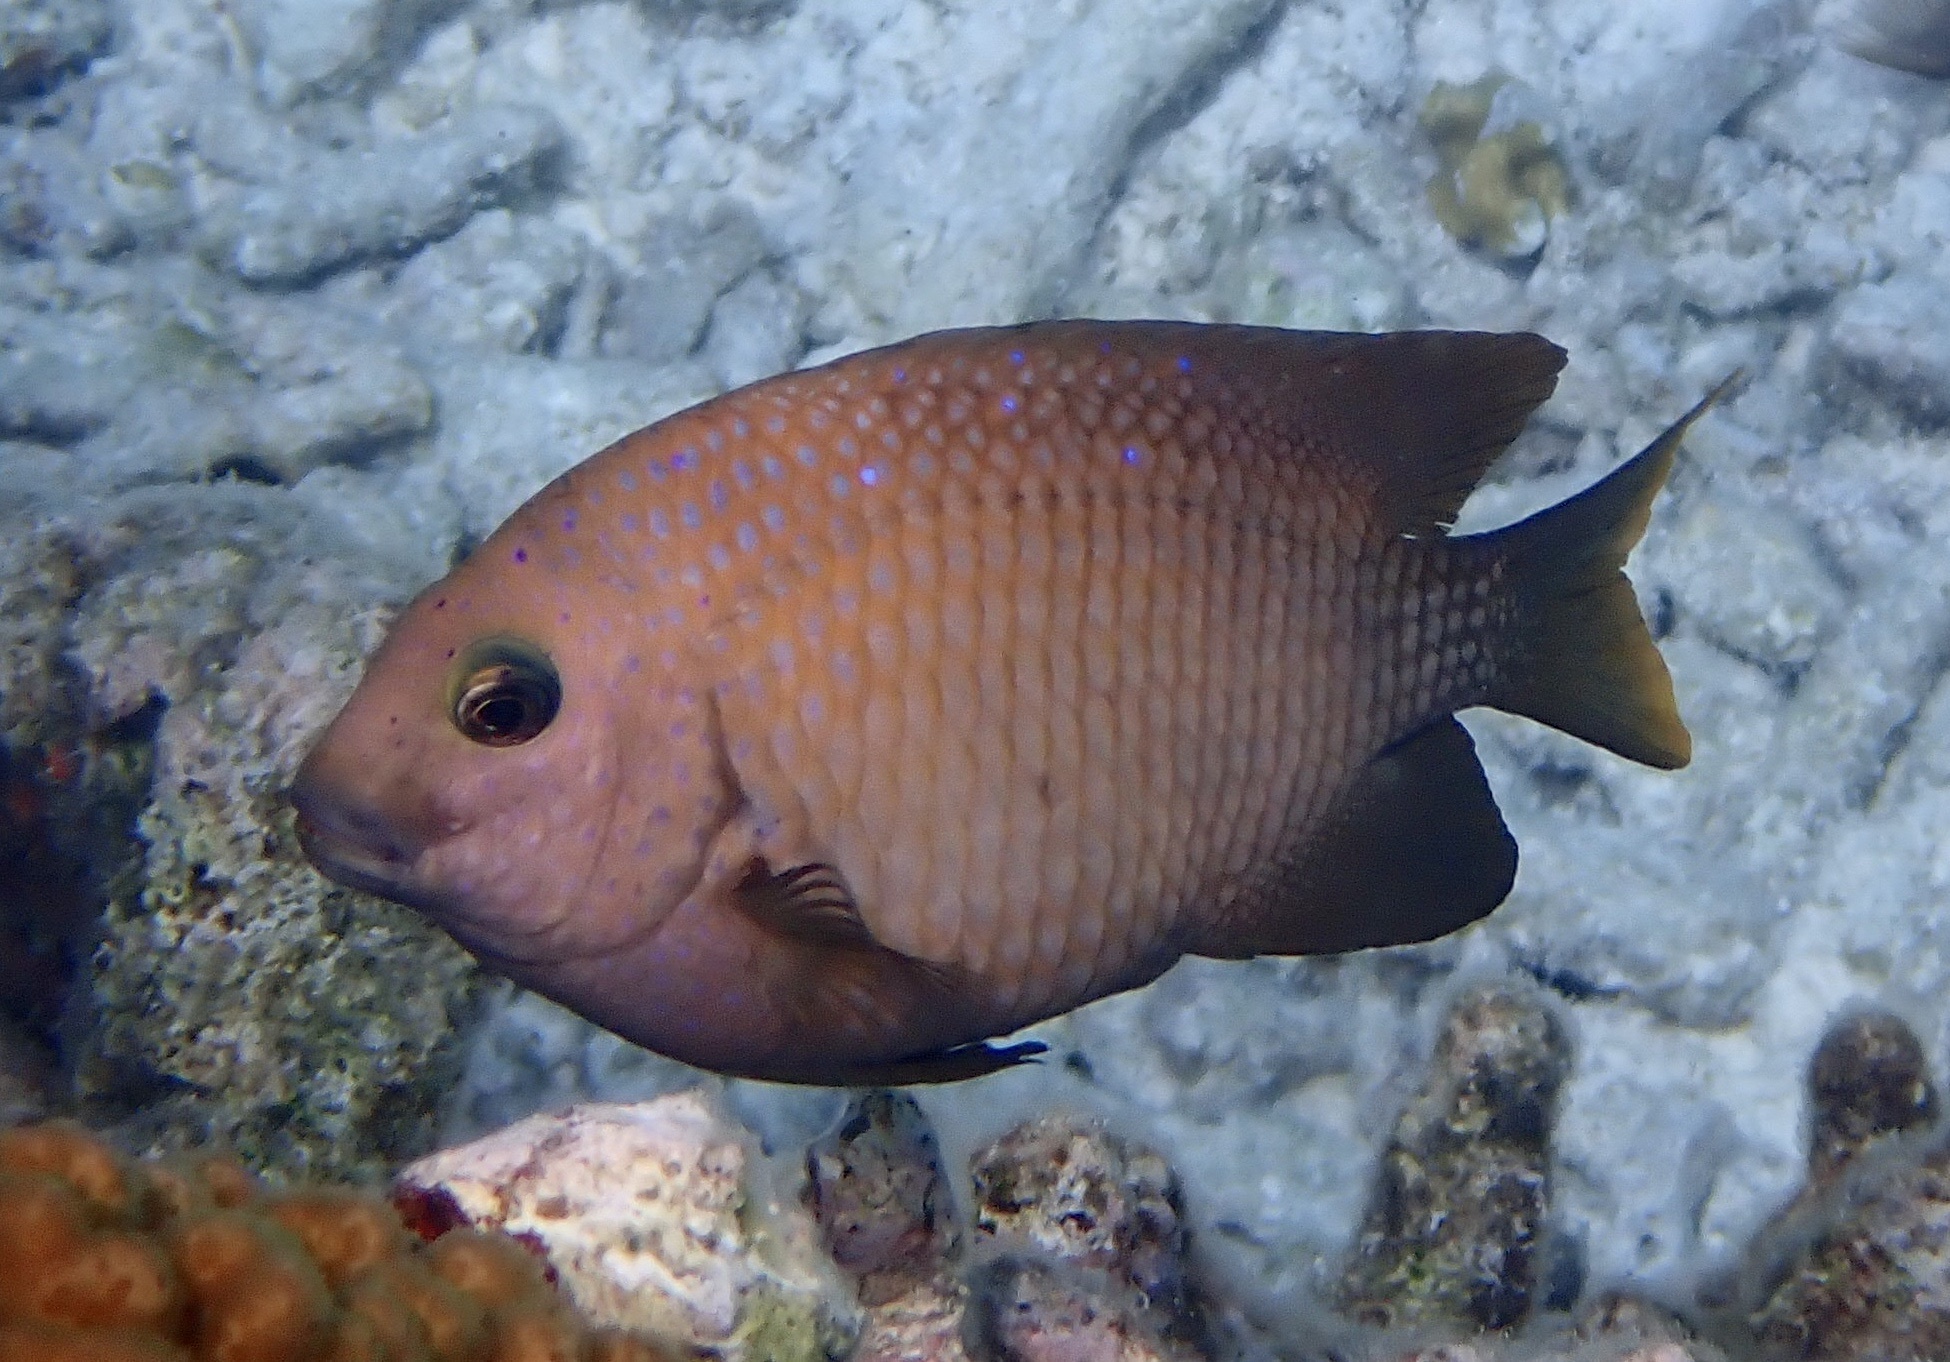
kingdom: Animalia
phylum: Chordata
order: Perciformes
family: Pomacentridae
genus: Microspathodon
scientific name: Microspathodon chrysurus
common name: Yellowtail damselfish
